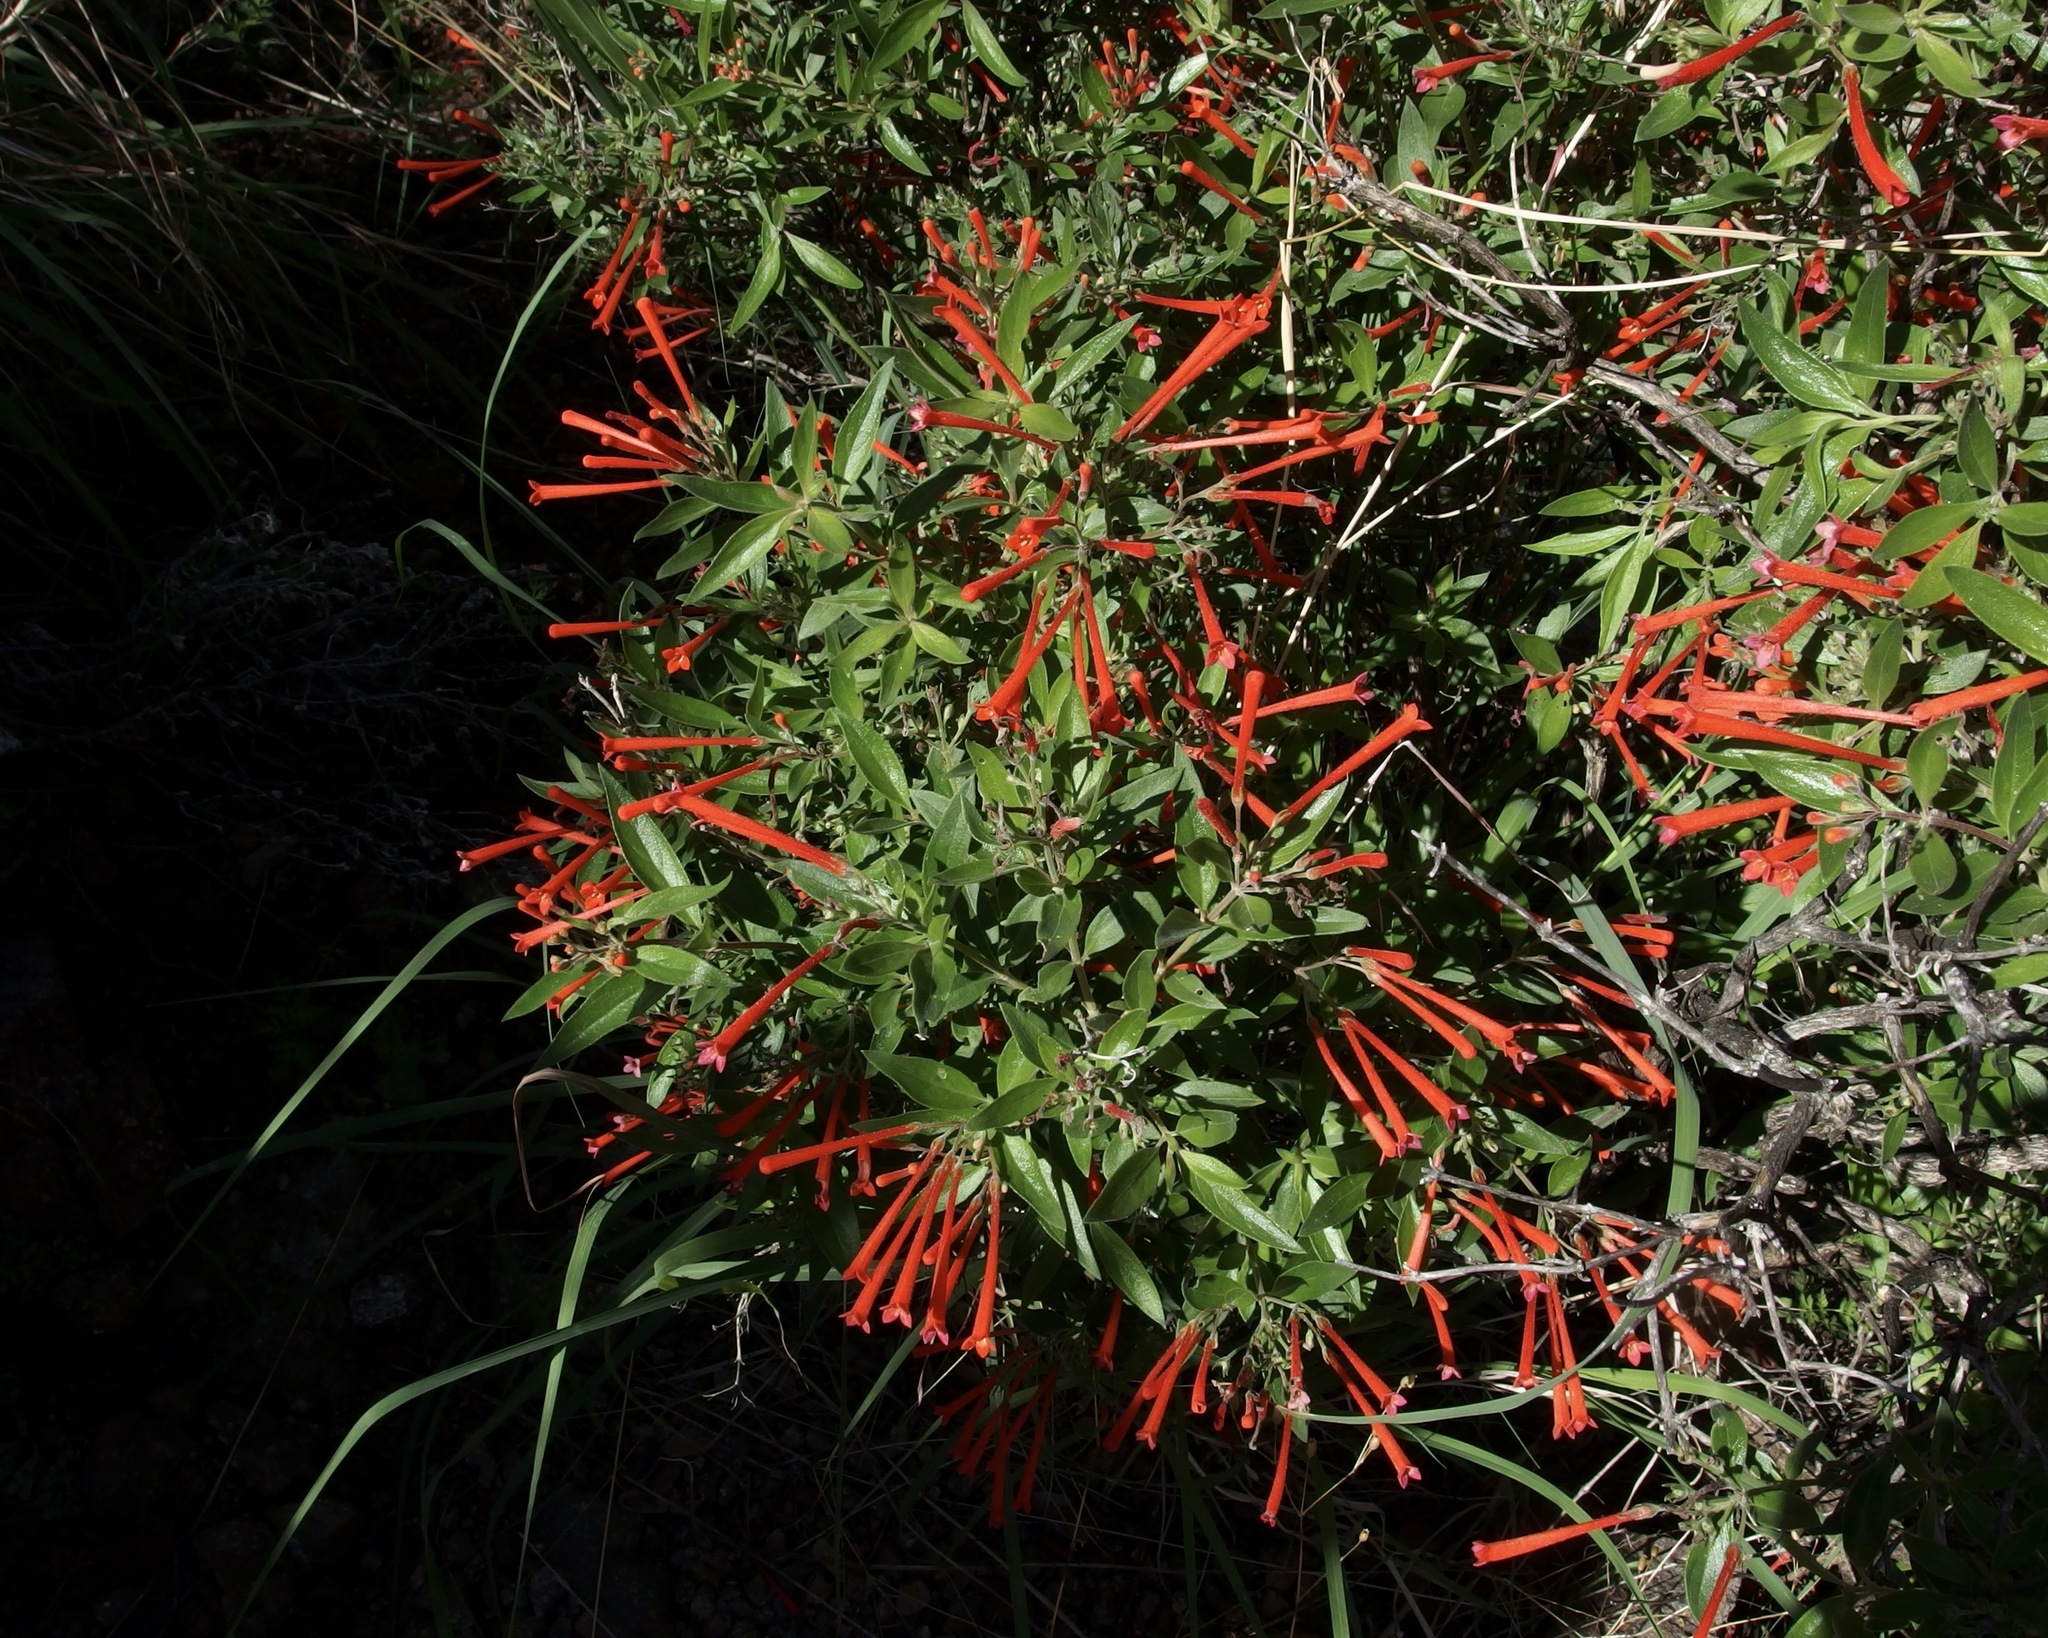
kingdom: Plantae
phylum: Tracheophyta
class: Magnoliopsida
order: Gentianales
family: Rubiaceae
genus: Bouvardia
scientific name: Bouvardia ternifolia
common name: Scarlet bouvardia
